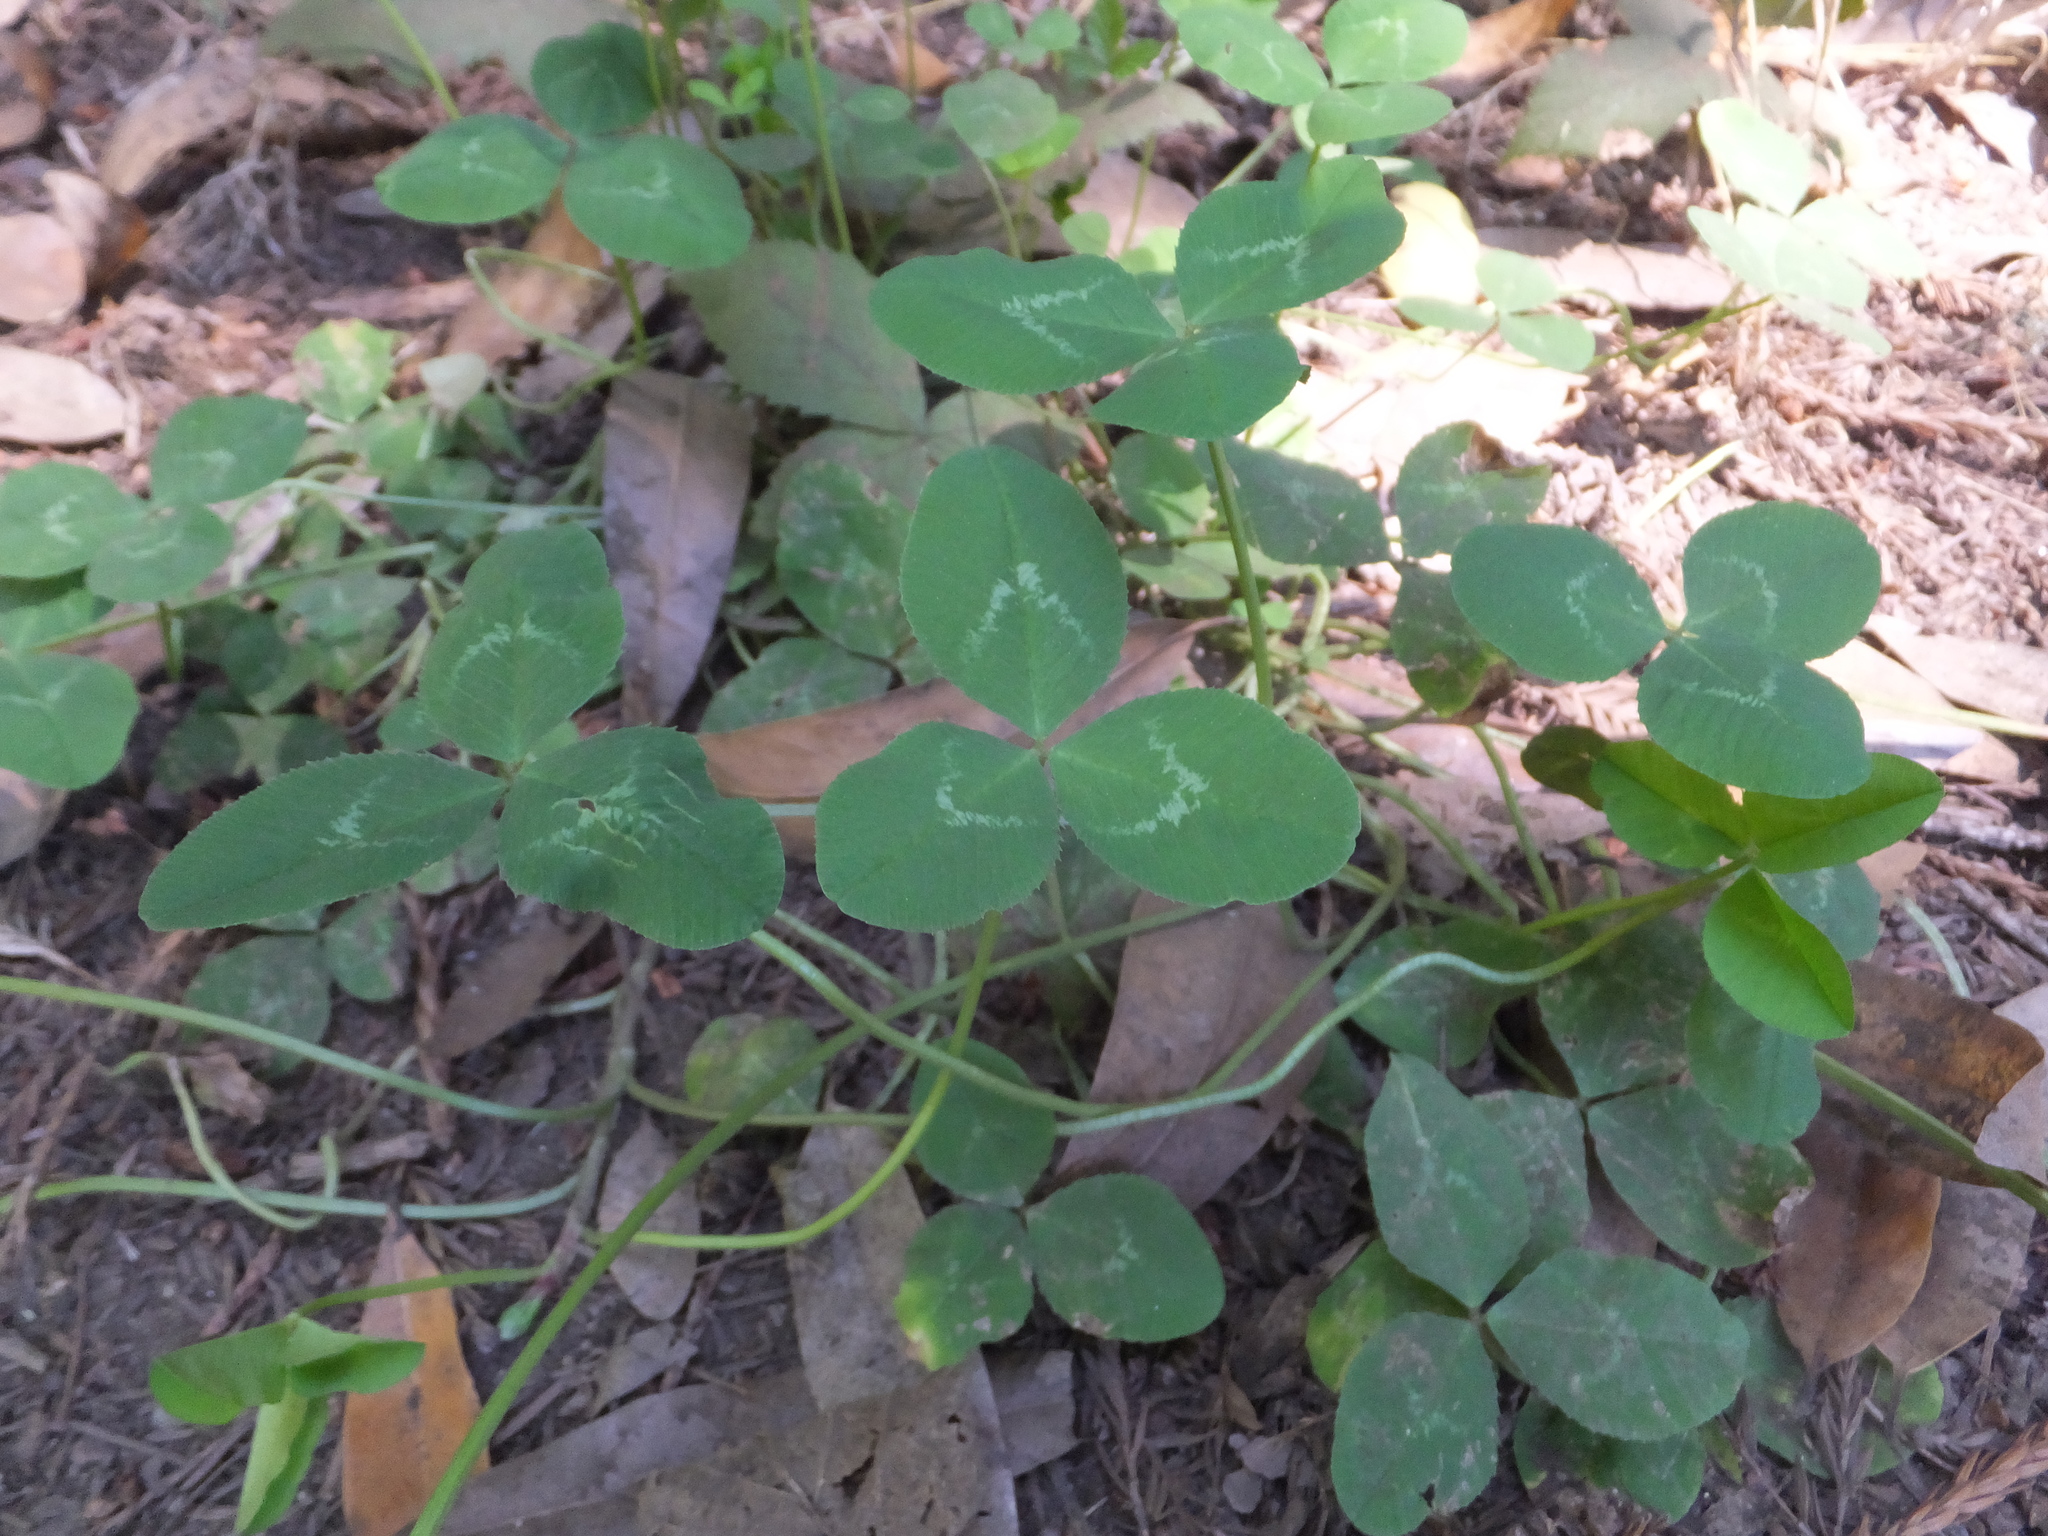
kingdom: Plantae
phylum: Tracheophyta
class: Magnoliopsida
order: Fabales
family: Fabaceae
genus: Trifolium
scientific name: Trifolium repens
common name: White clover
